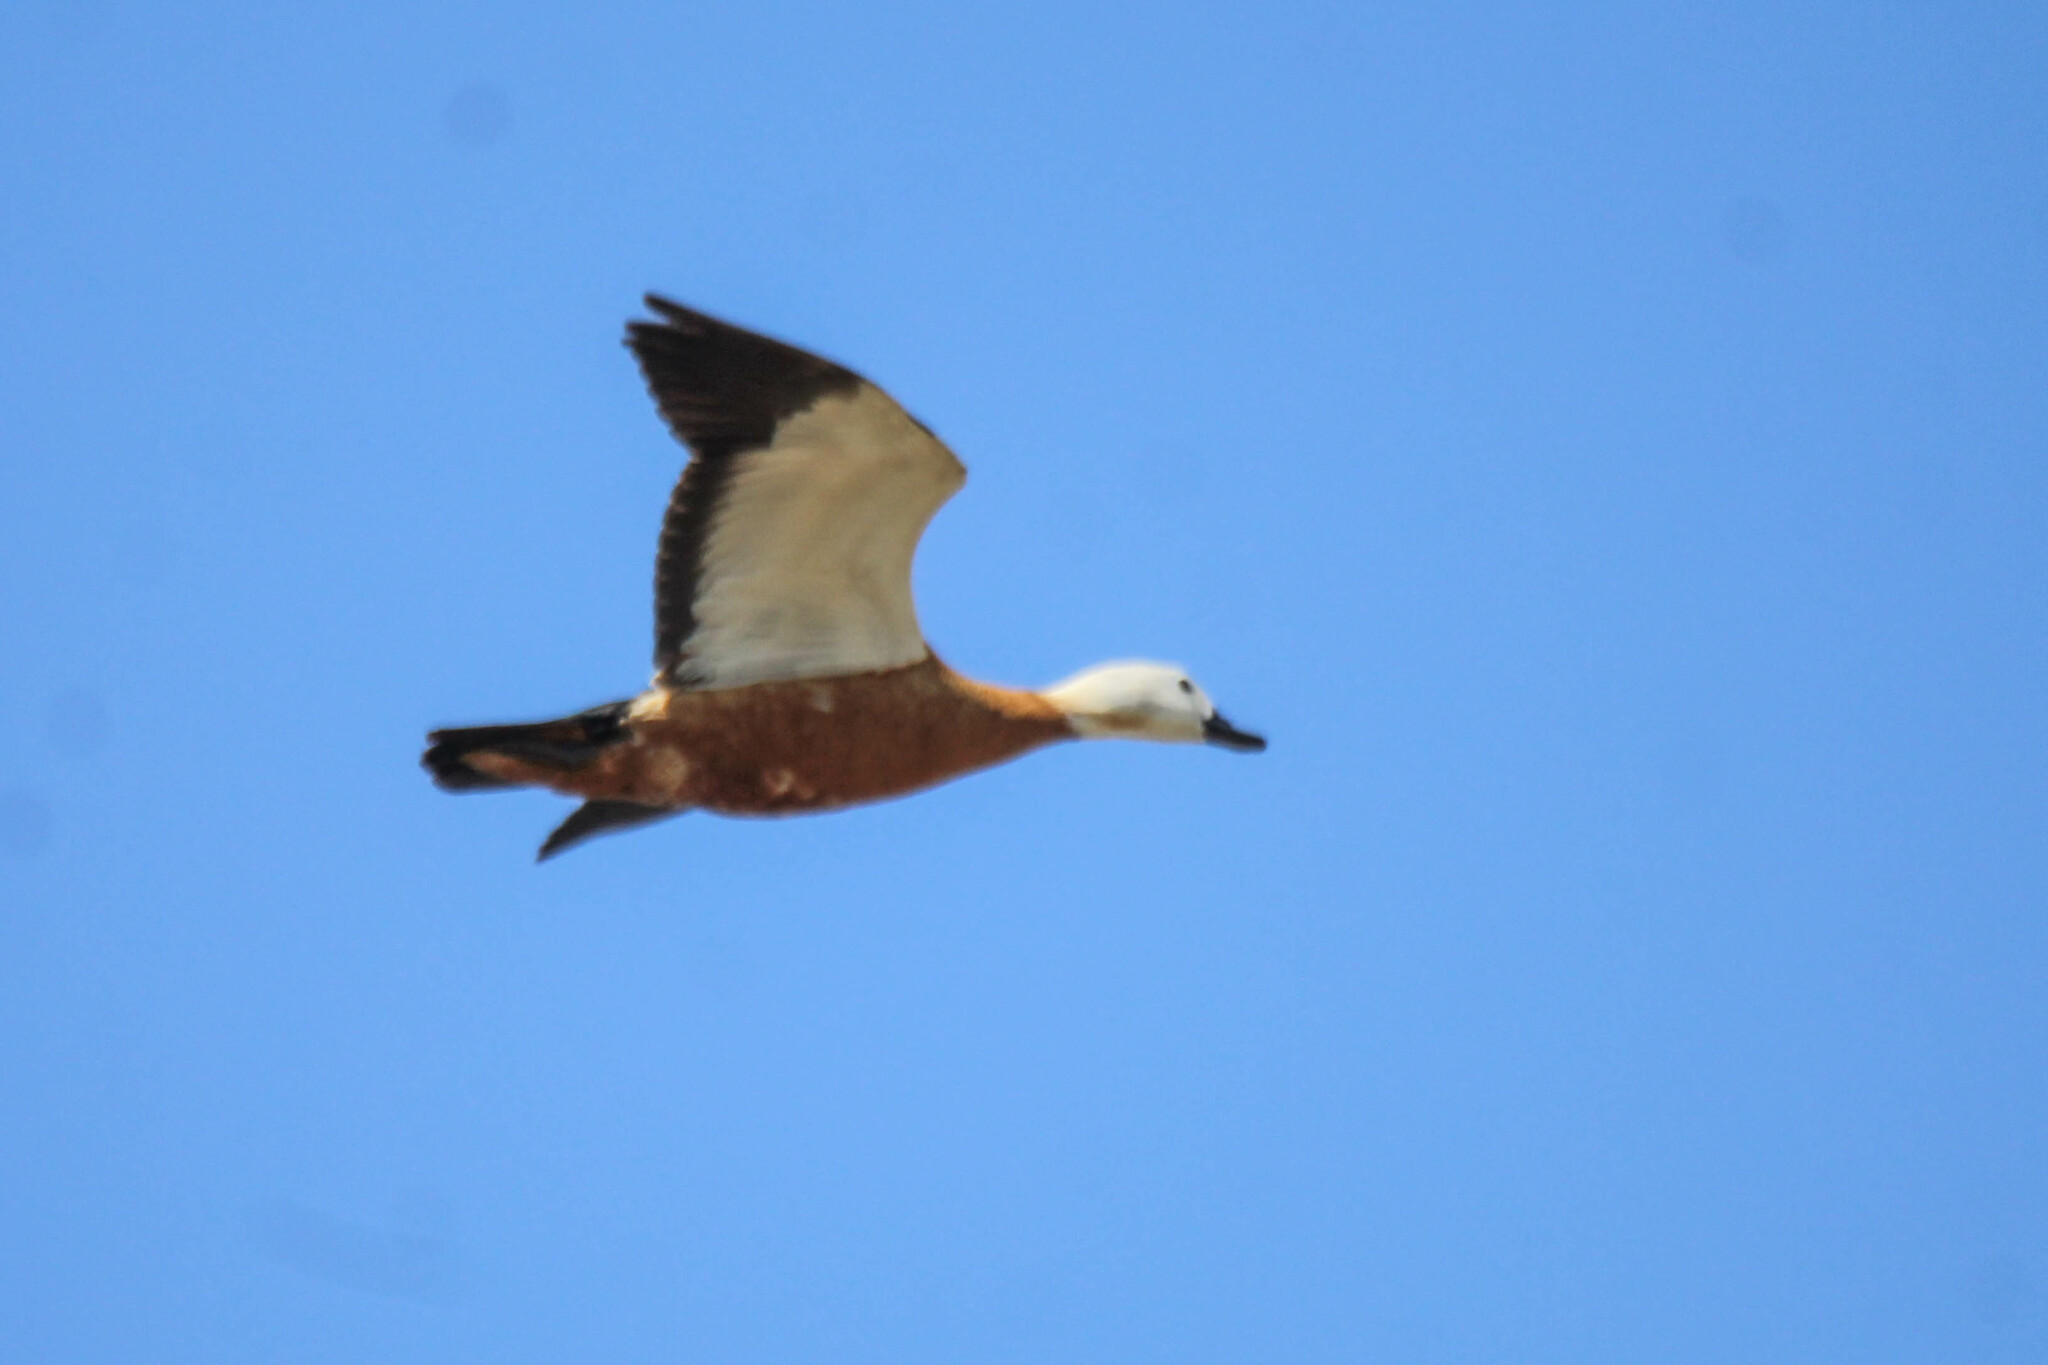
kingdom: Animalia
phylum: Chordata
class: Aves
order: Anseriformes
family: Anatidae
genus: Tadorna
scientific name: Tadorna ferruginea
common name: Ruddy shelduck
